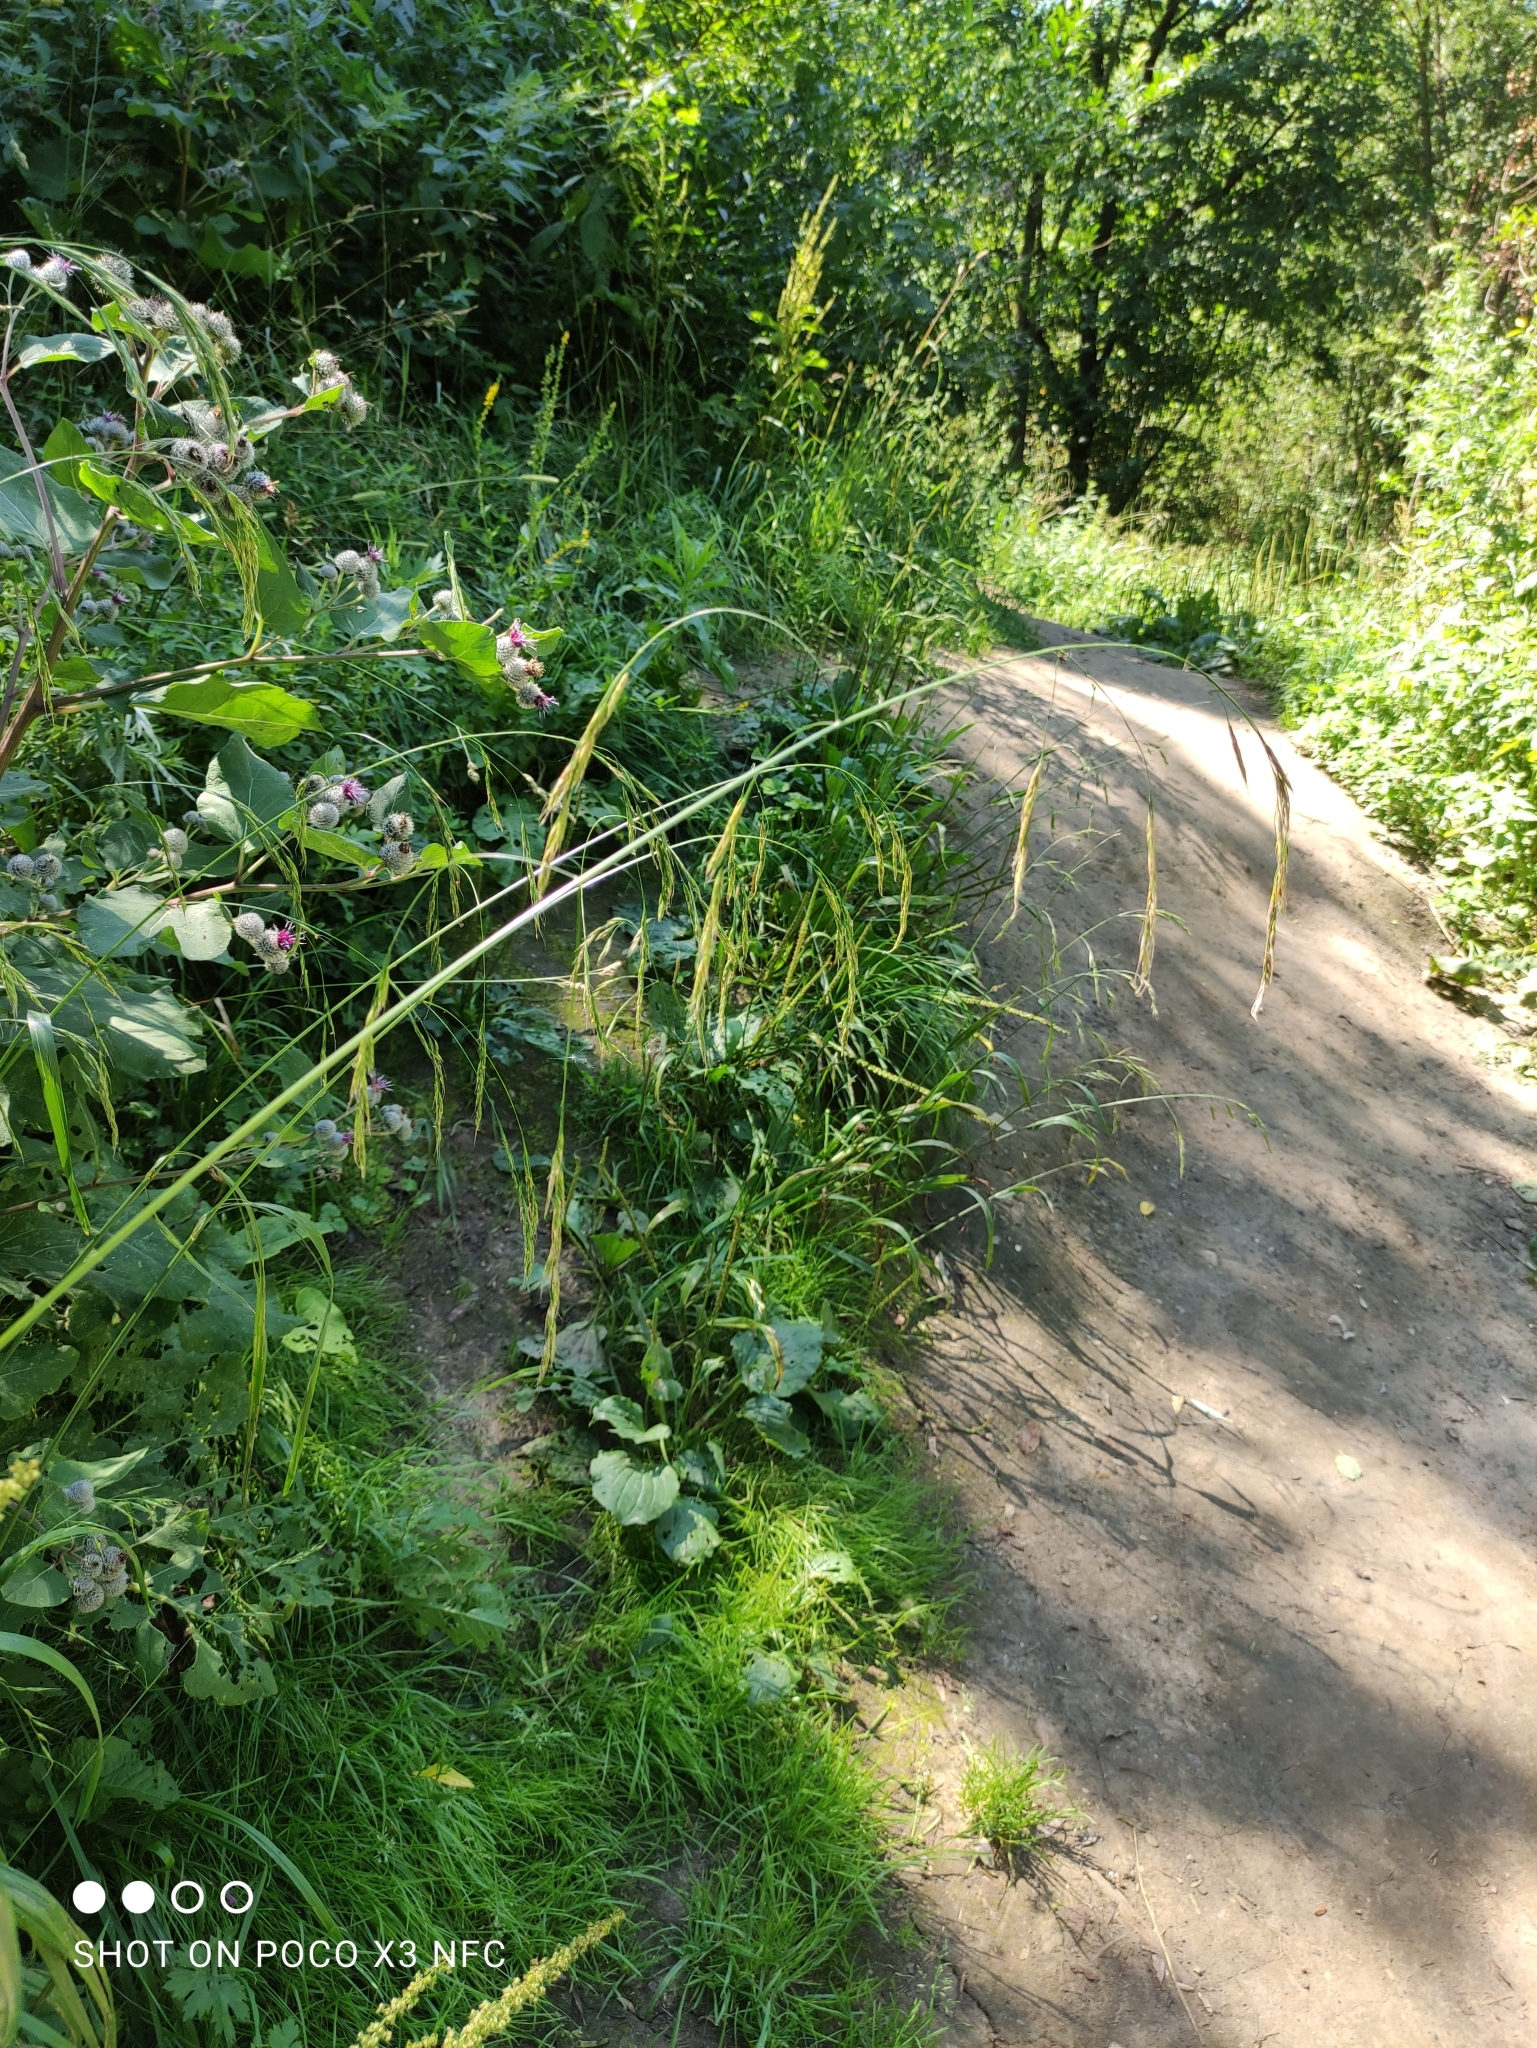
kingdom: Plantae
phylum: Tracheophyta
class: Liliopsida
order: Poales
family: Poaceae
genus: Lolium
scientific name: Lolium giganteum
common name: Giant fescue
